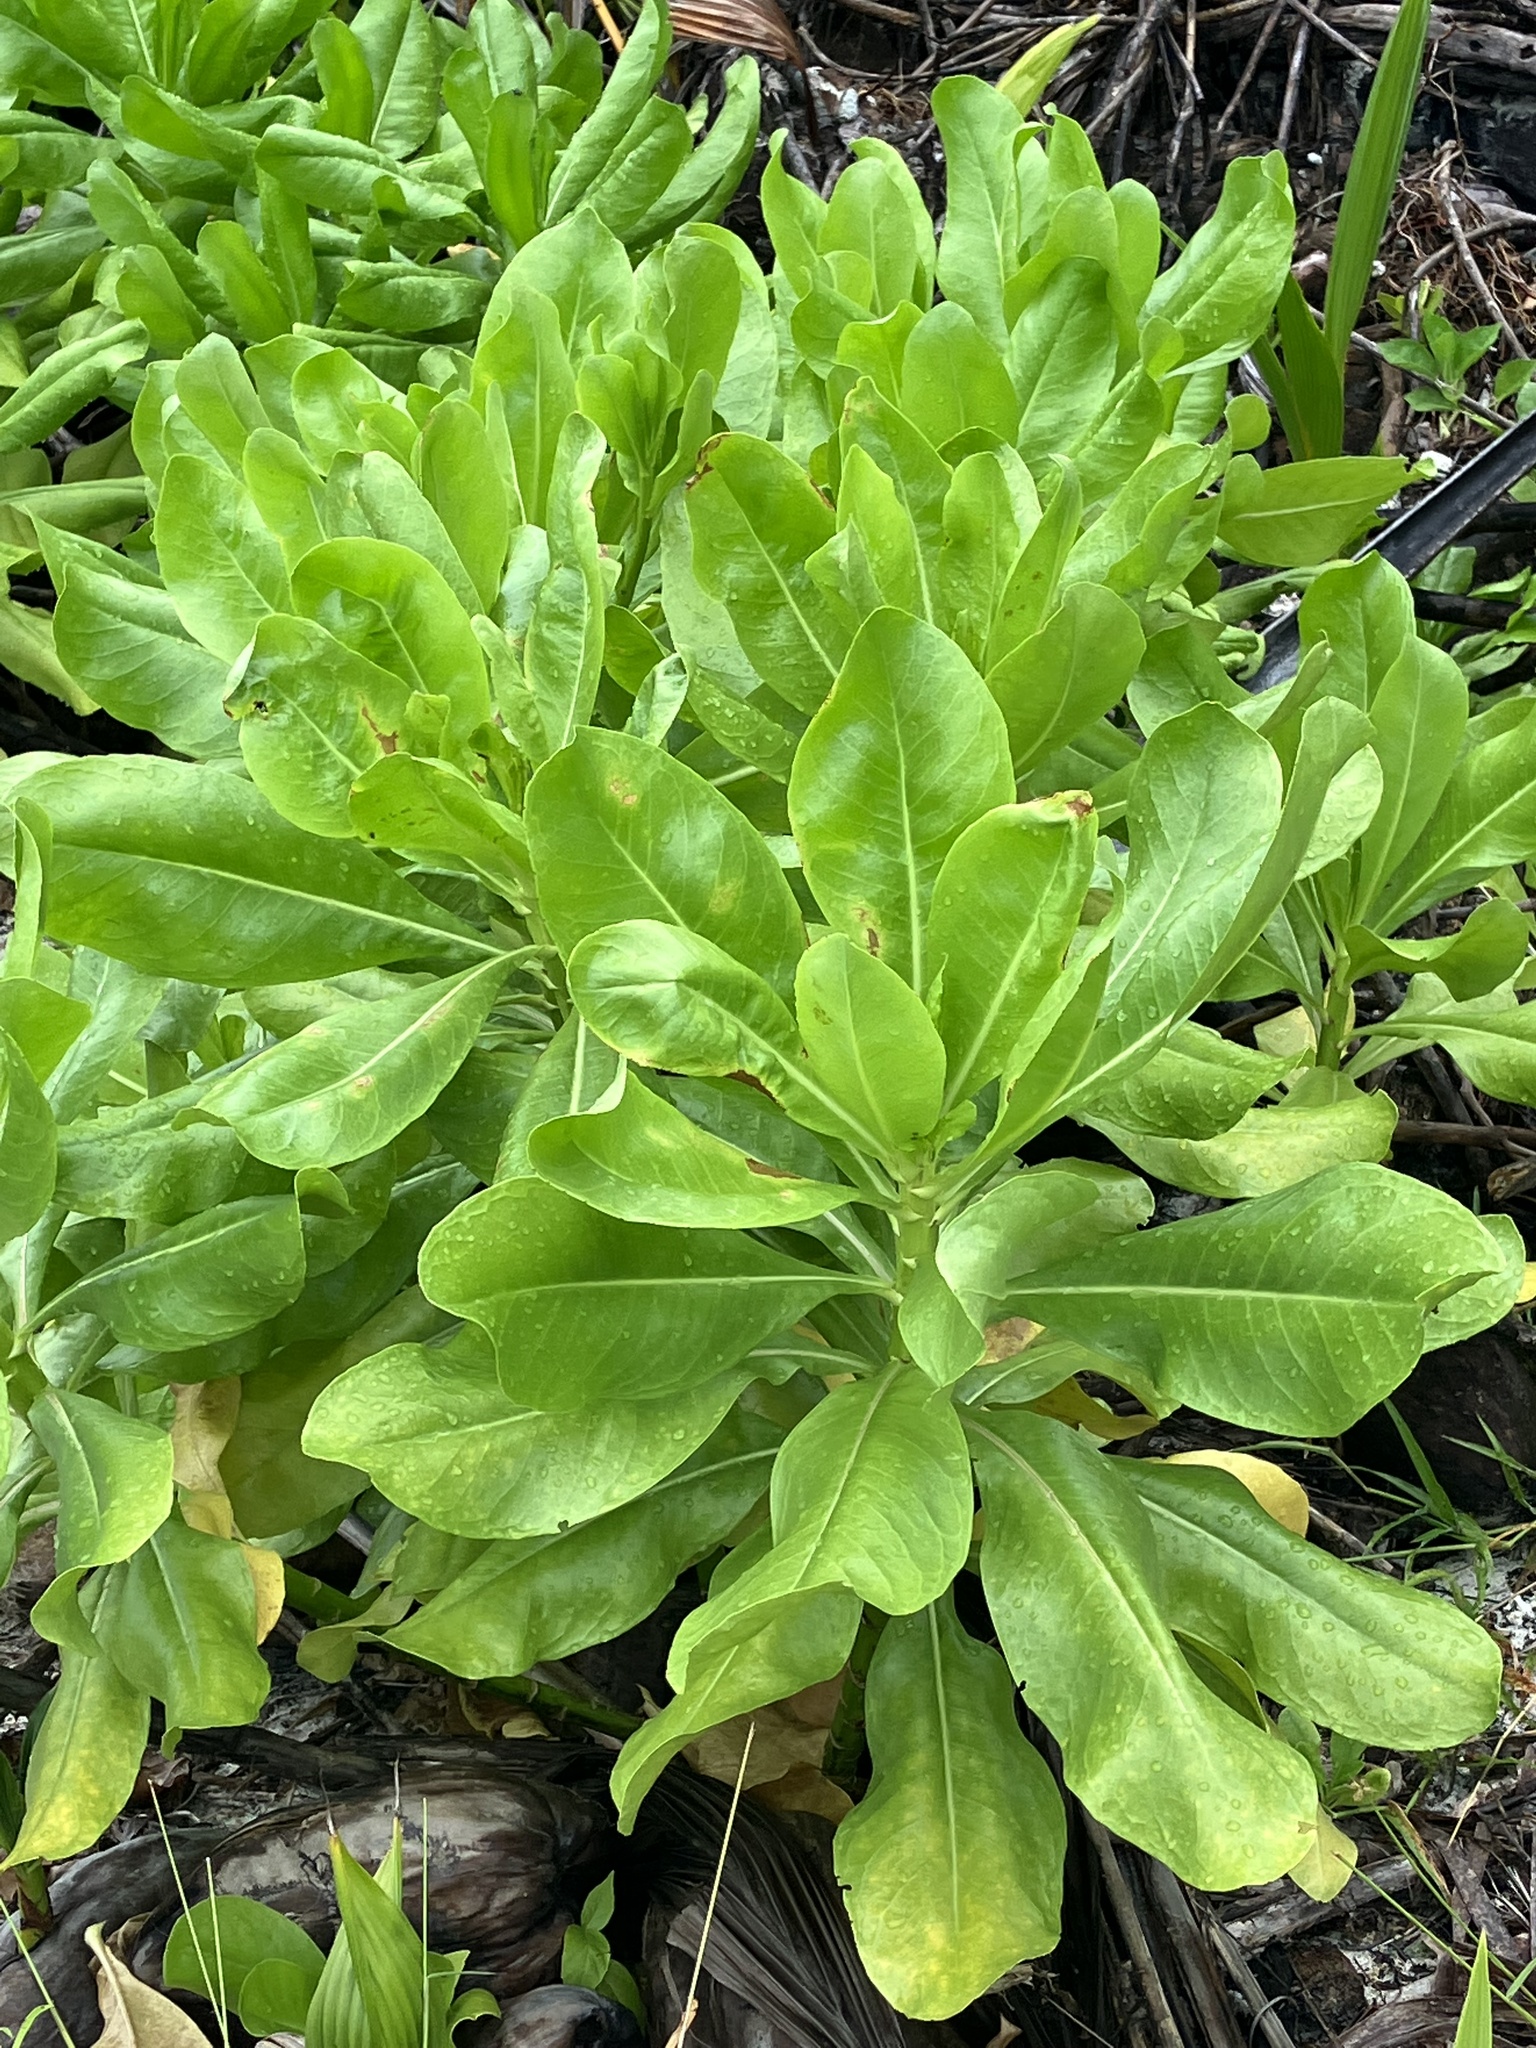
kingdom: Plantae
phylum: Tracheophyta
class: Magnoliopsida
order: Asterales
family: Goodeniaceae
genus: Scaevola
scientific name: Scaevola taccada
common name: Sea lettucetree
